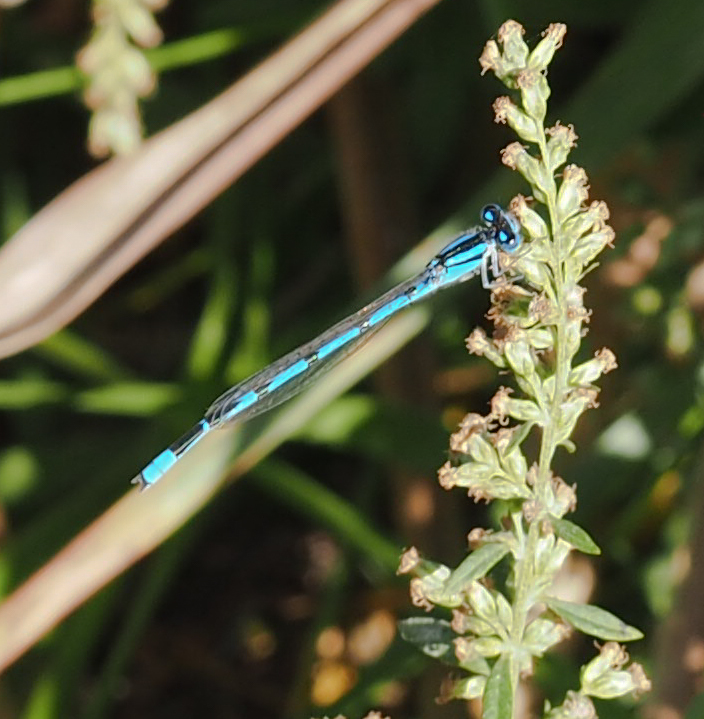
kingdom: Animalia
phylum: Arthropoda
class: Insecta
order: Odonata
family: Coenagrionidae
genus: Enallagma
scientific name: Enallagma civile
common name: Damselfly
